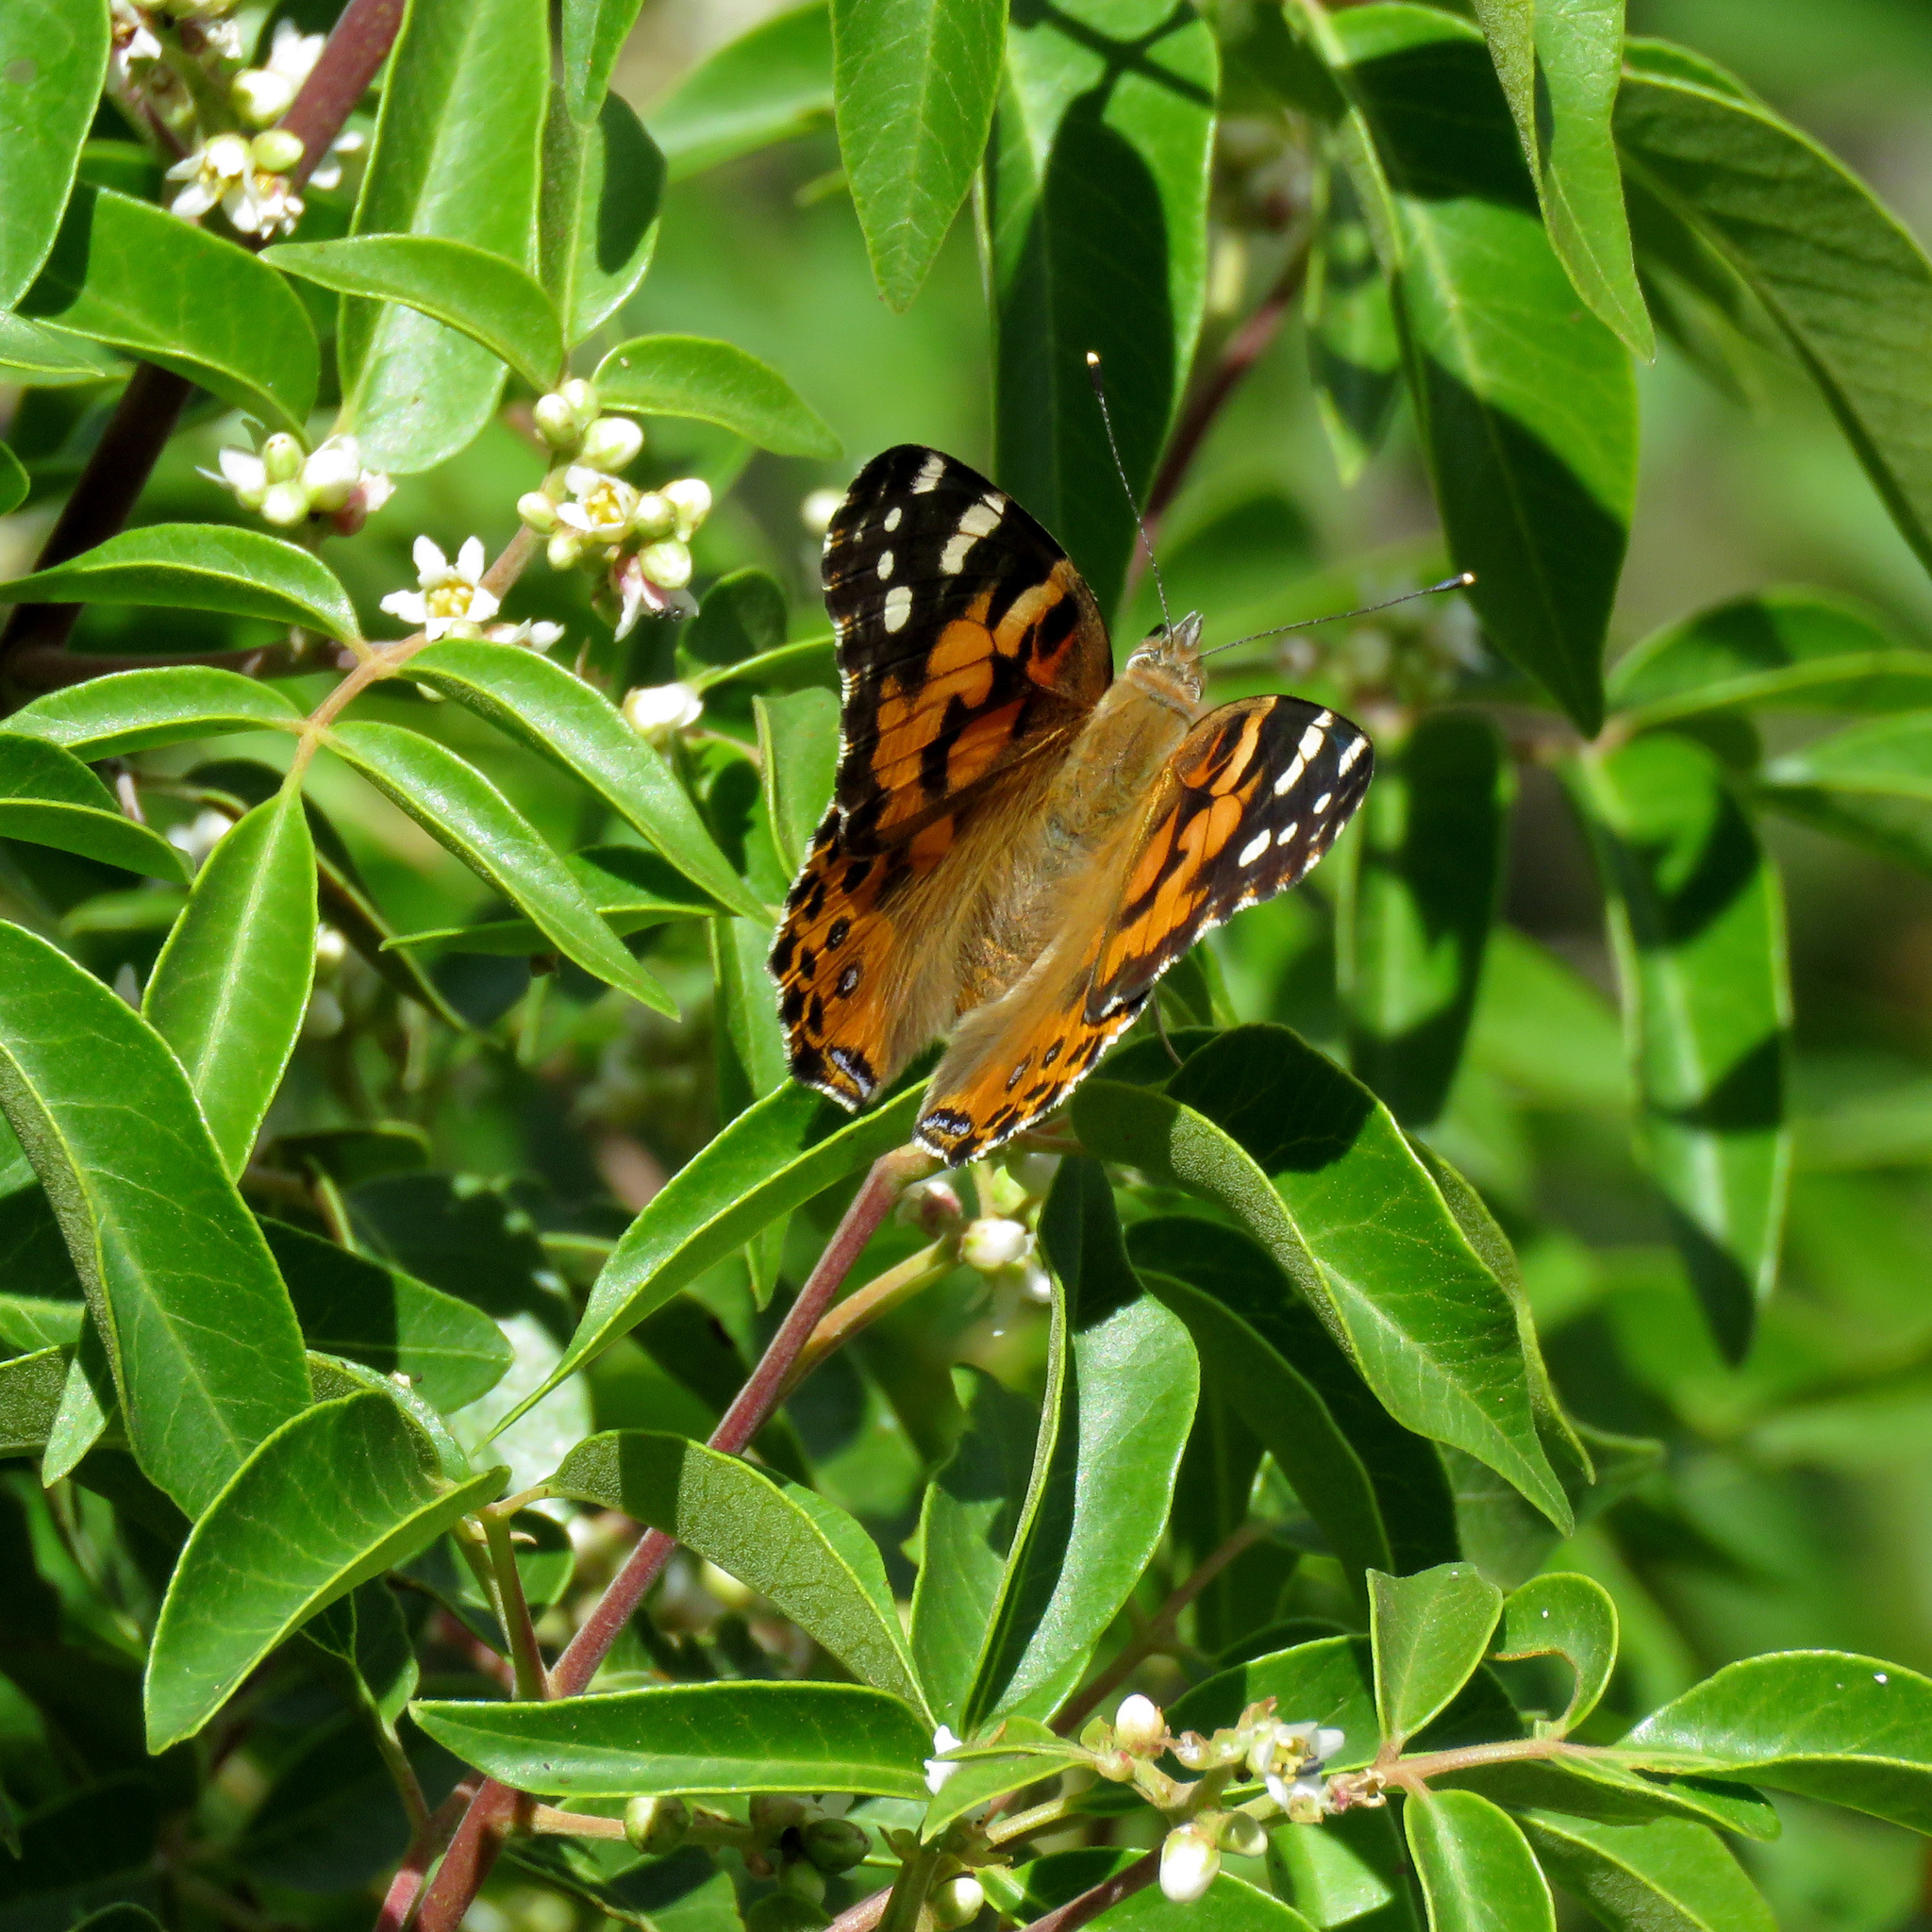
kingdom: Animalia
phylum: Arthropoda
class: Insecta
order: Lepidoptera
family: Nymphalidae
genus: Vanessa
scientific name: Vanessa cardui
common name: Painted lady
